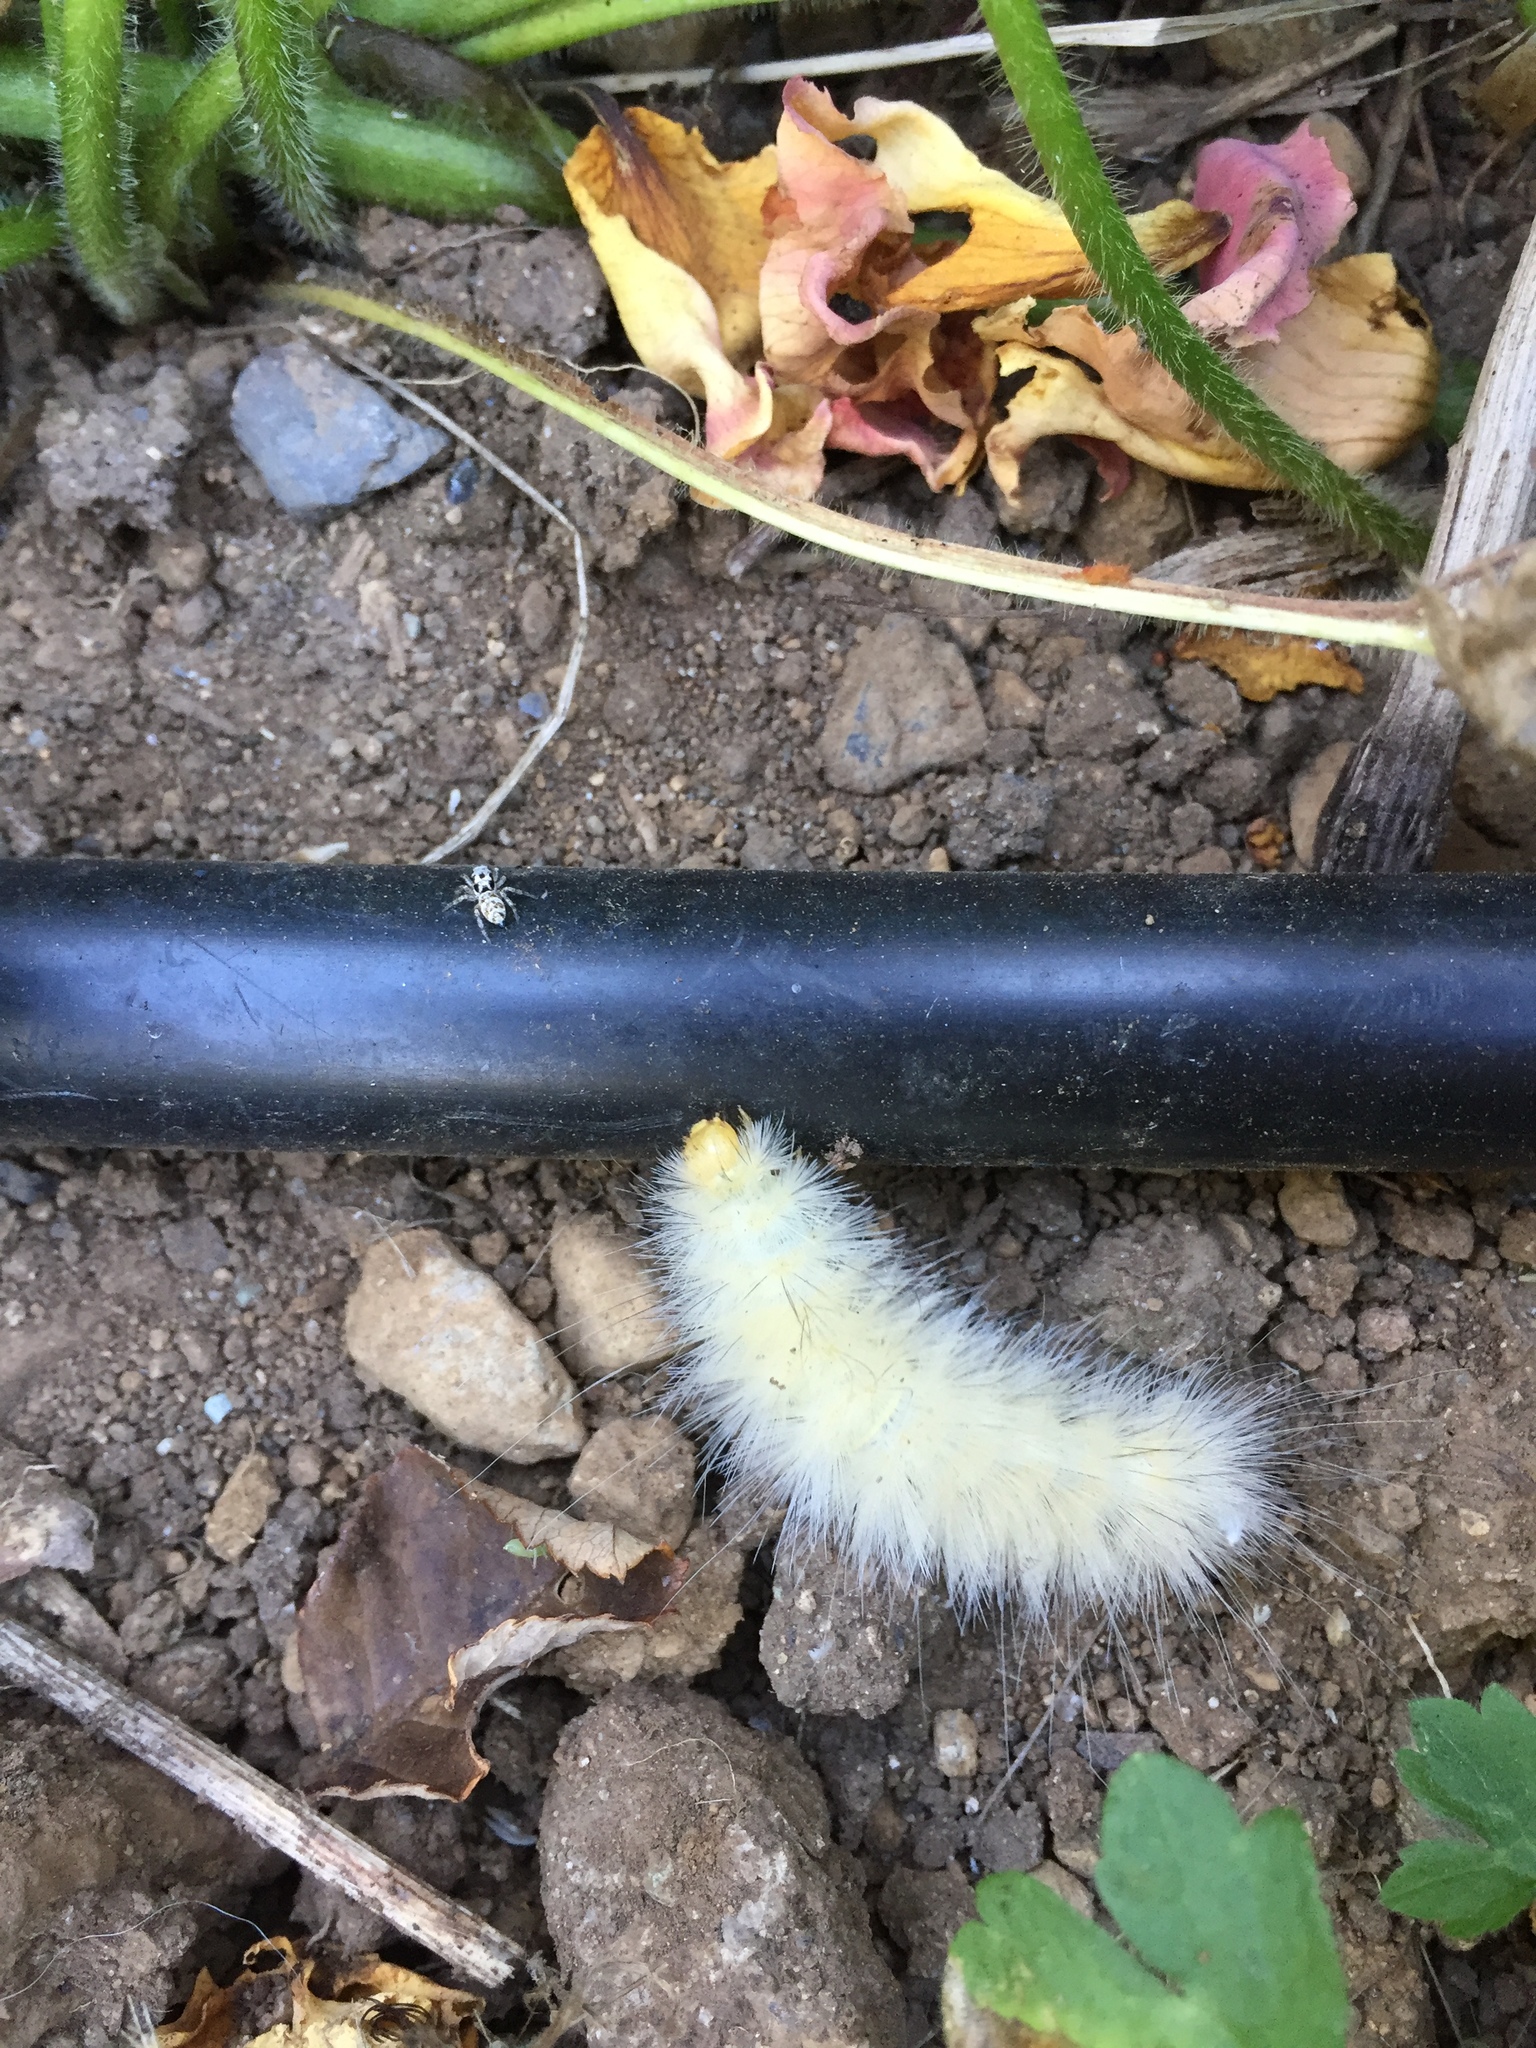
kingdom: Animalia
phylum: Arthropoda
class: Insecta
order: Lepidoptera
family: Erebidae
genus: Spilosoma
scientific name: Spilosoma virginica
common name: Virginia tiger moth
